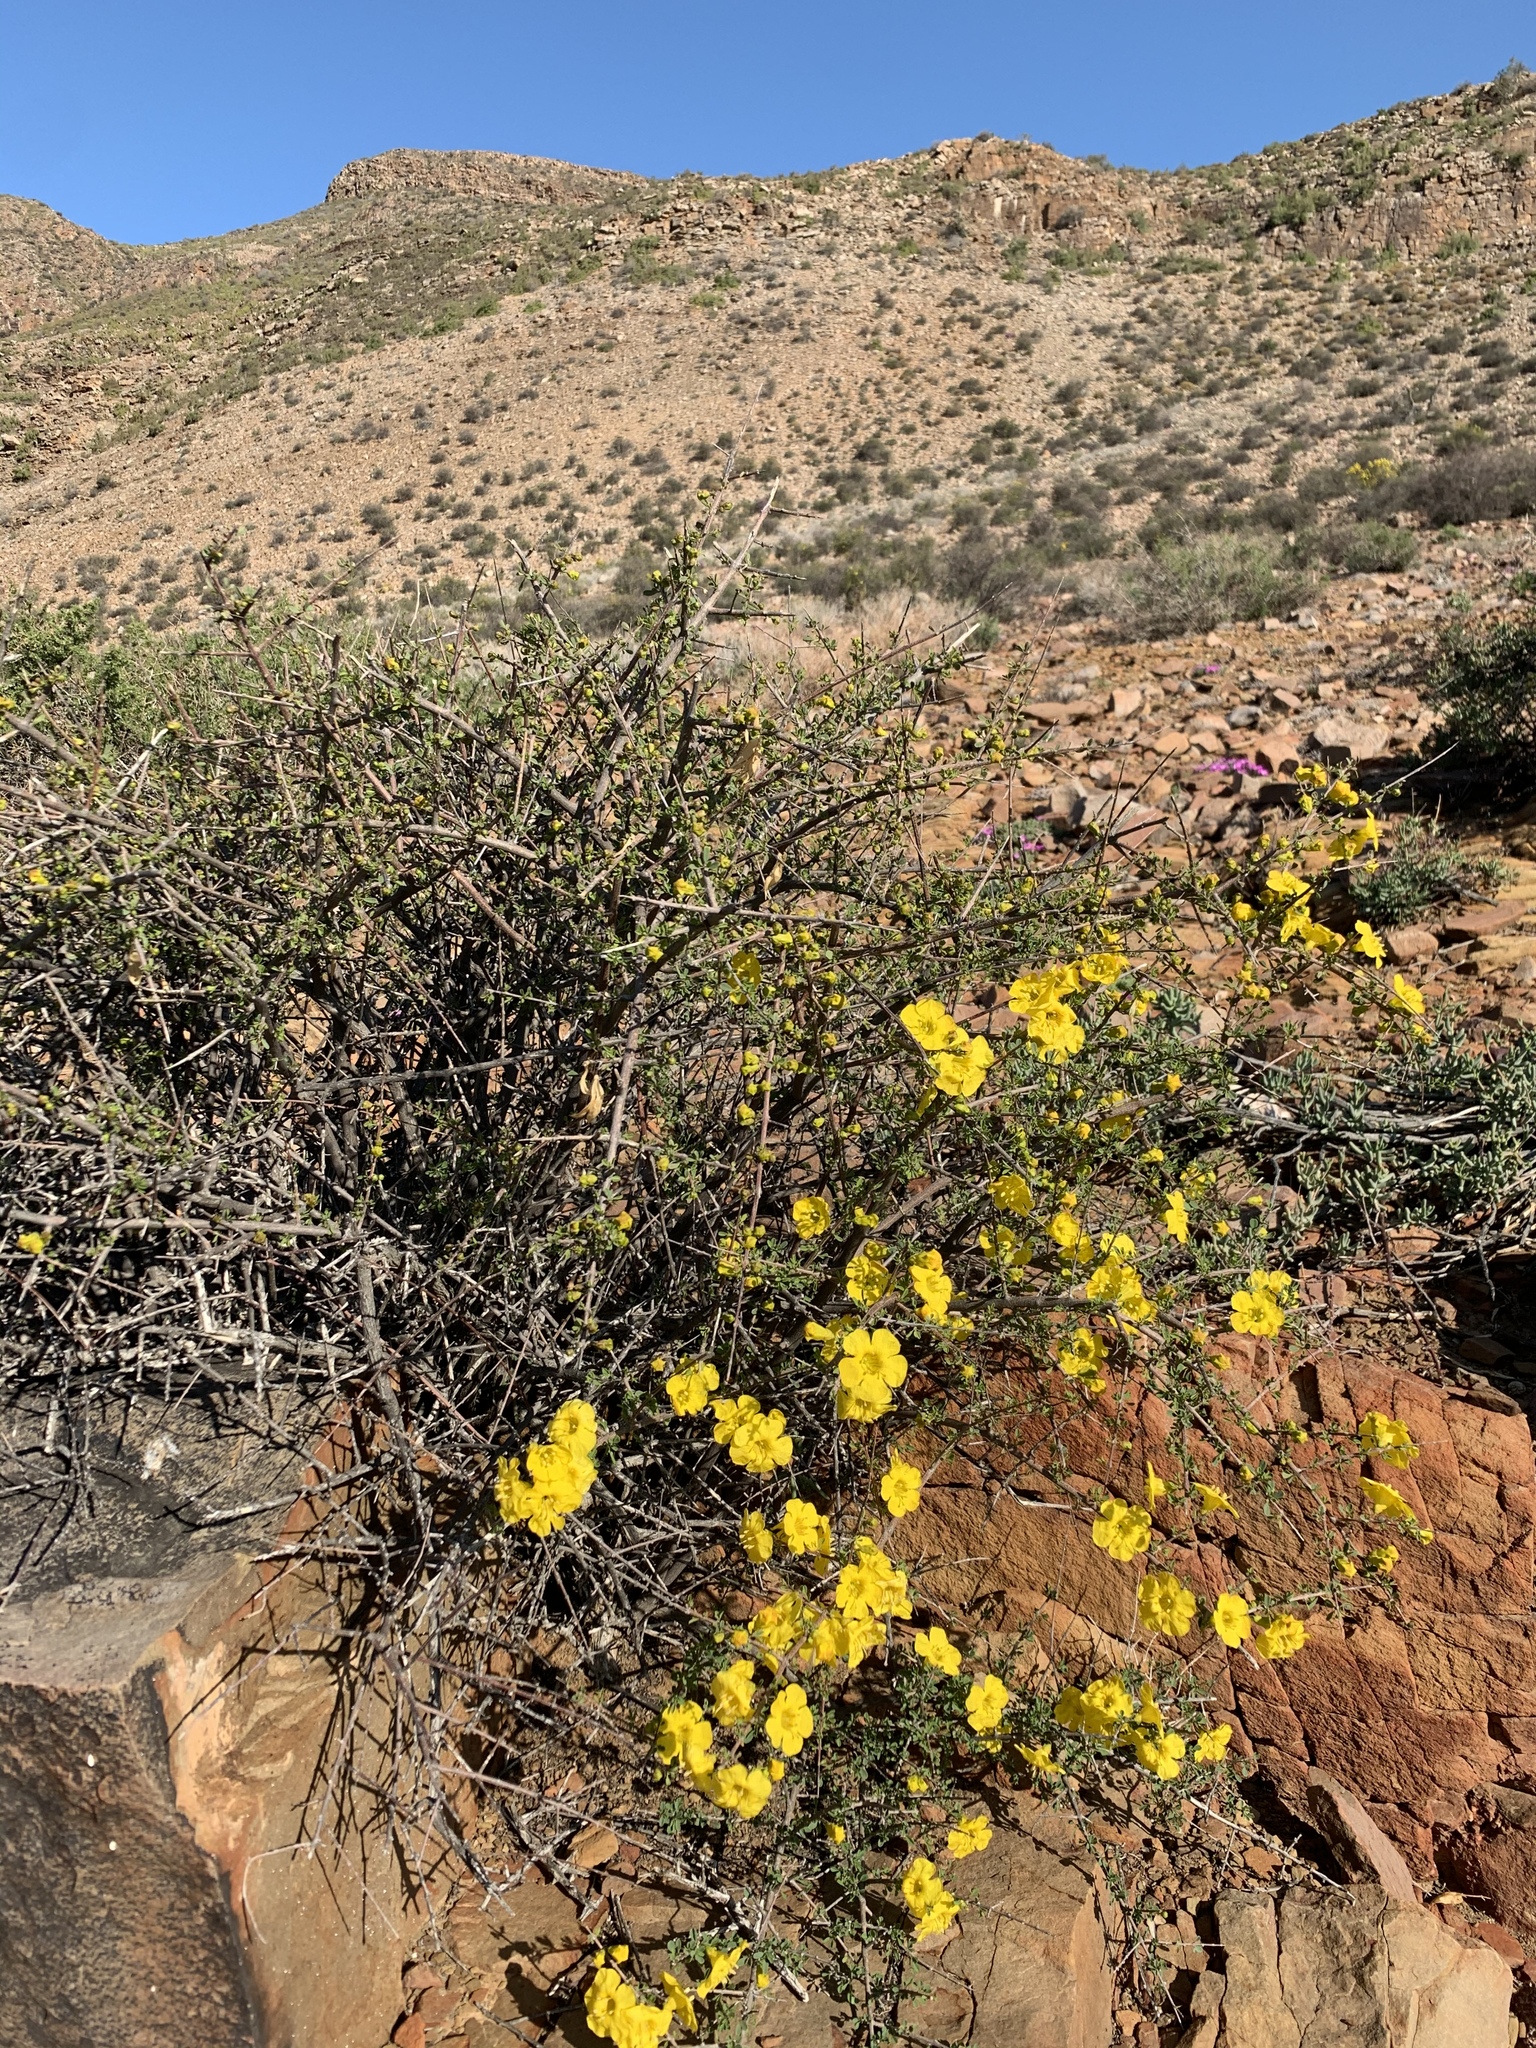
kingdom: Plantae
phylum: Tracheophyta
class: Magnoliopsida
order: Lamiales
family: Bignoniaceae
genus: Rhigozum
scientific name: Rhigozum obovatum
